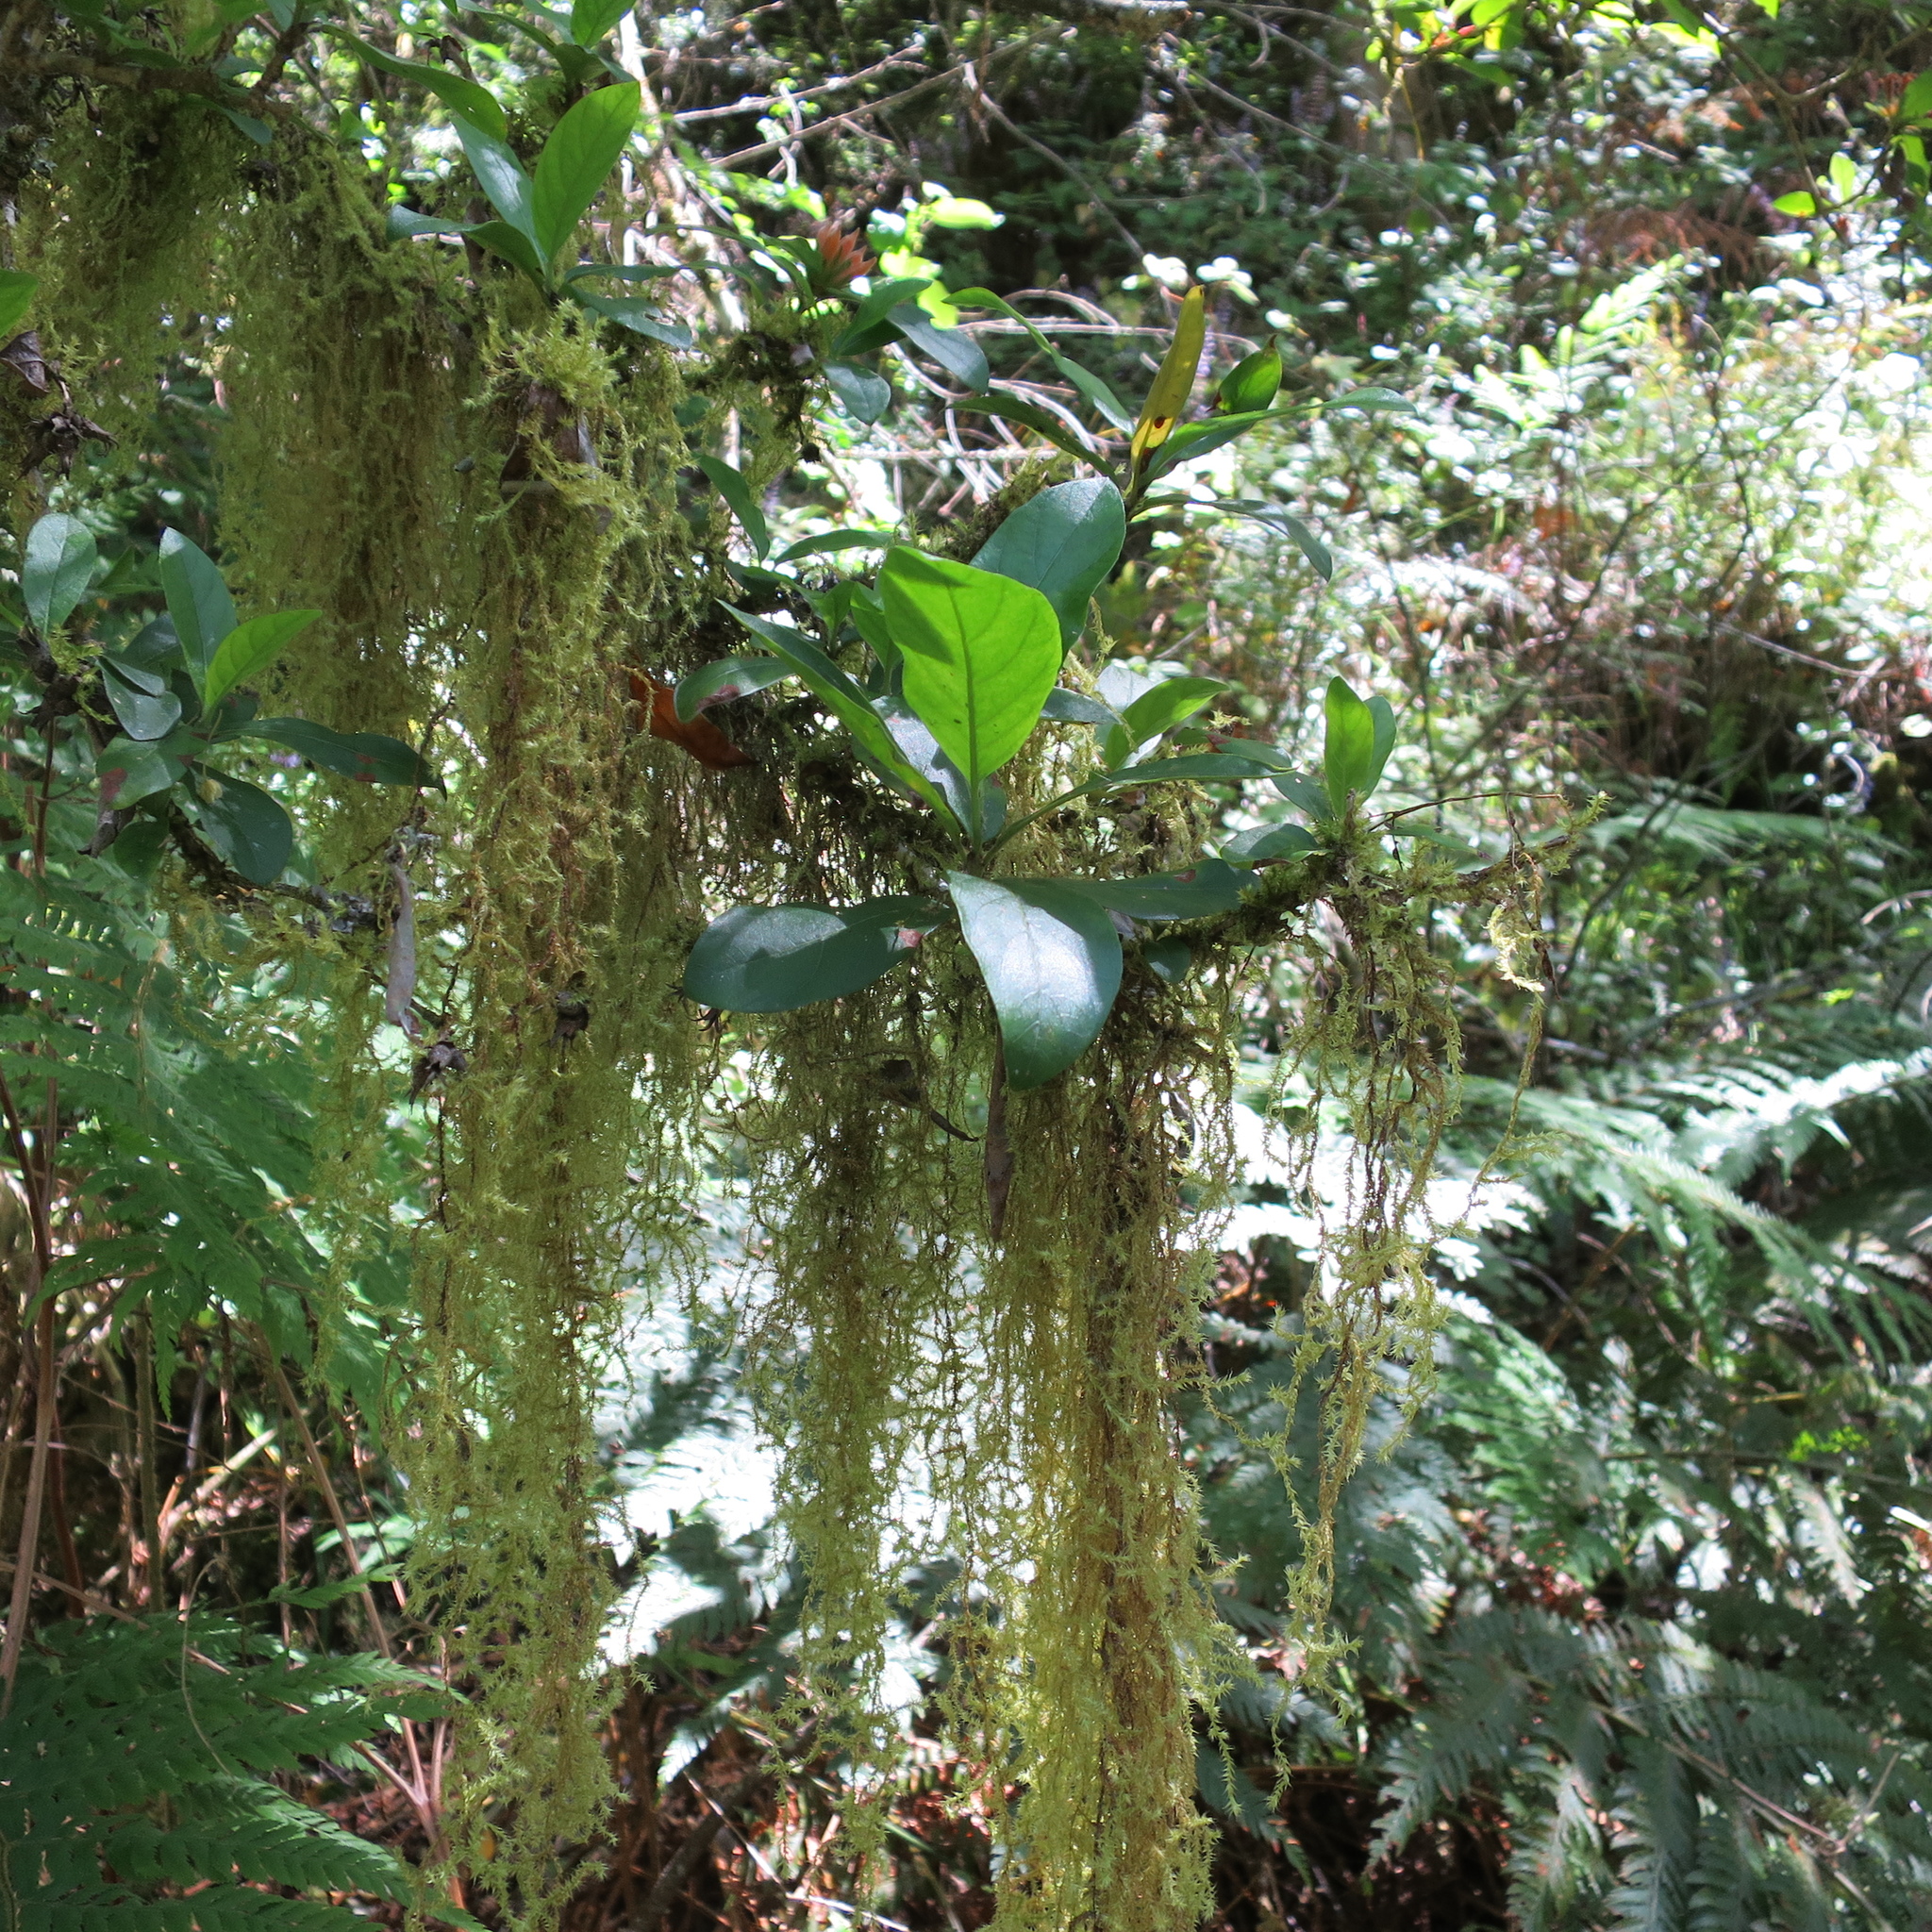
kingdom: Plantae
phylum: Tracheophyta
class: Magnoliopsida
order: Gentianales
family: Rubiaceae
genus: Burchellia
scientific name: Burchellia bubalina
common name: Wild pomegranate
